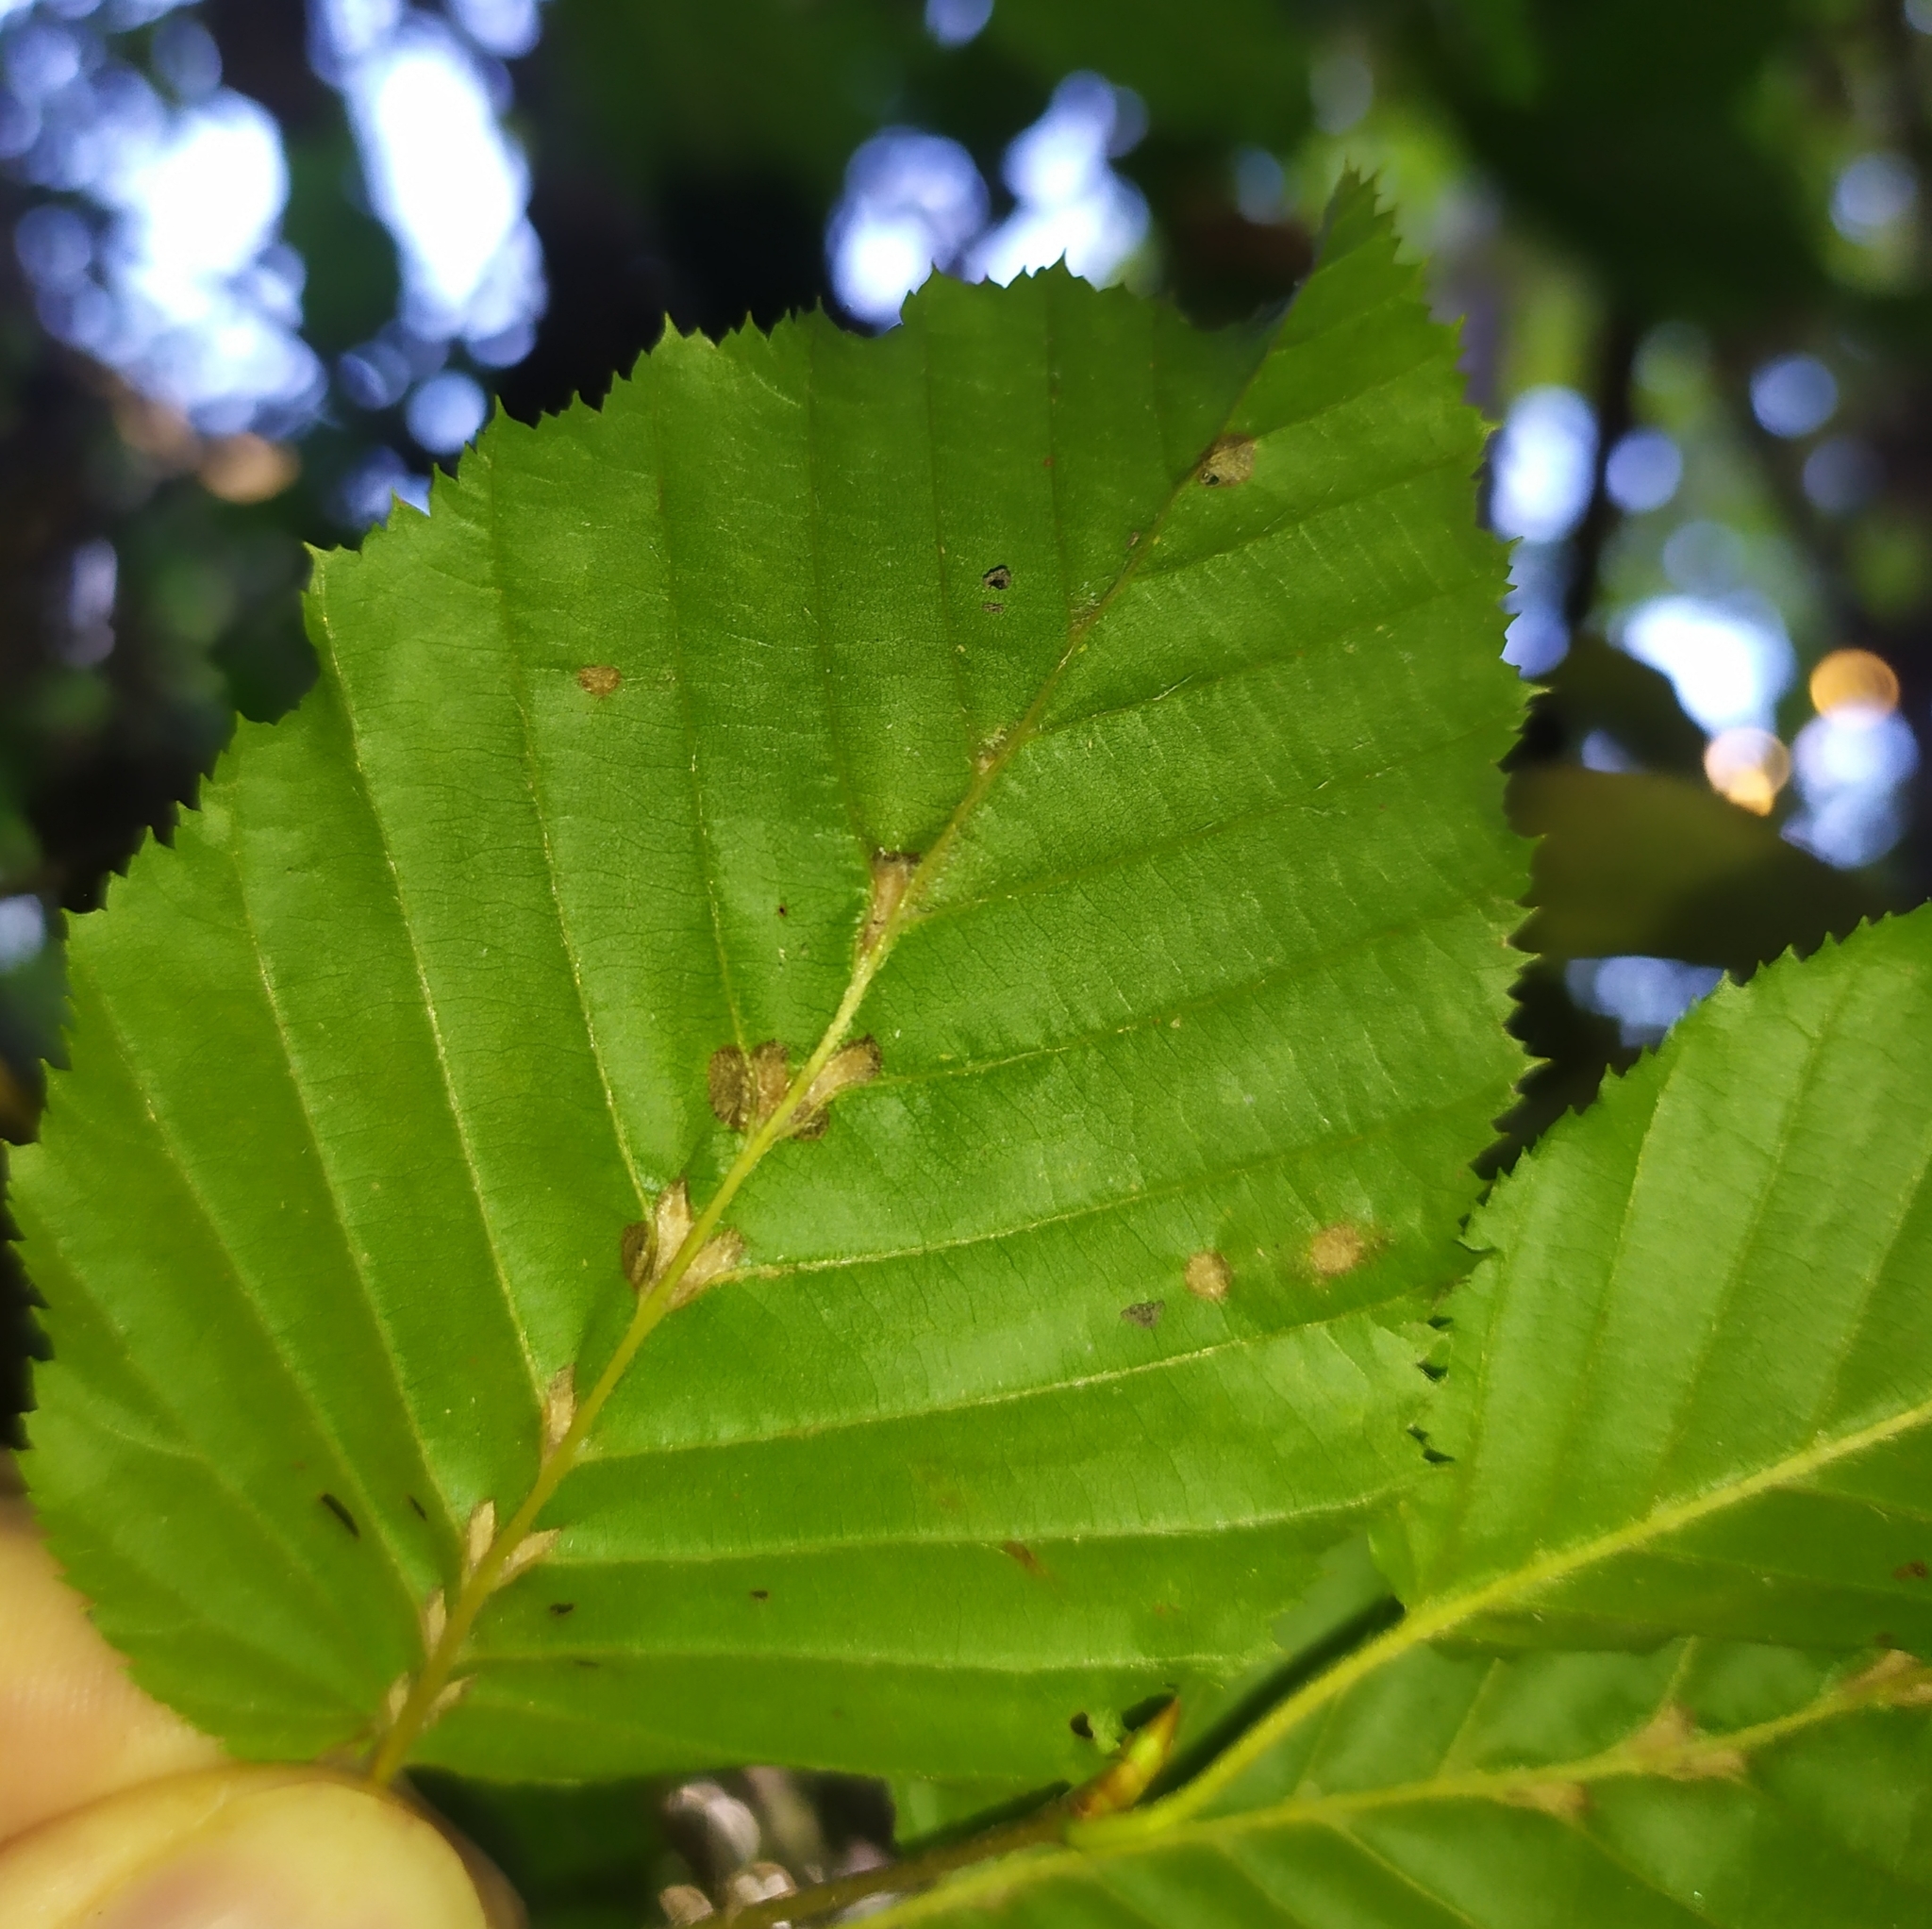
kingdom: Animalia
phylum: Arthropoda
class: Arachnida
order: Trombidiformes
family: Eriophyidae
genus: Aceria
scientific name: Aceria tenellus
